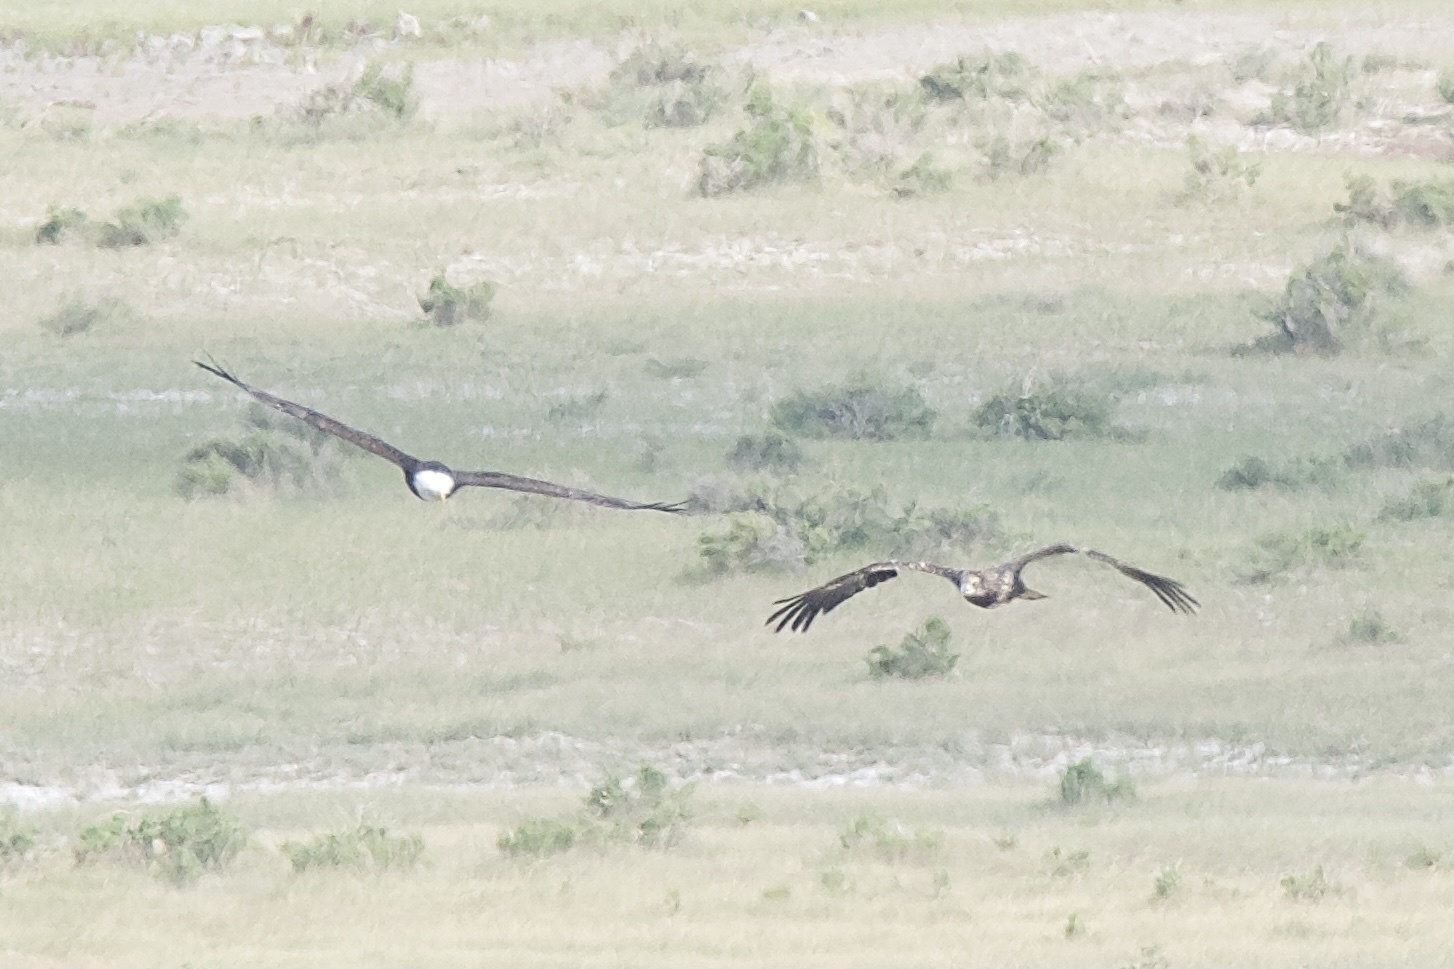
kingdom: Animalia
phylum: Chordata
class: Aves
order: Accipitriformes
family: Accipitridae
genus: Haliaeetus
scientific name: Haliaeetus leucocephalus
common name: Bald eagle
